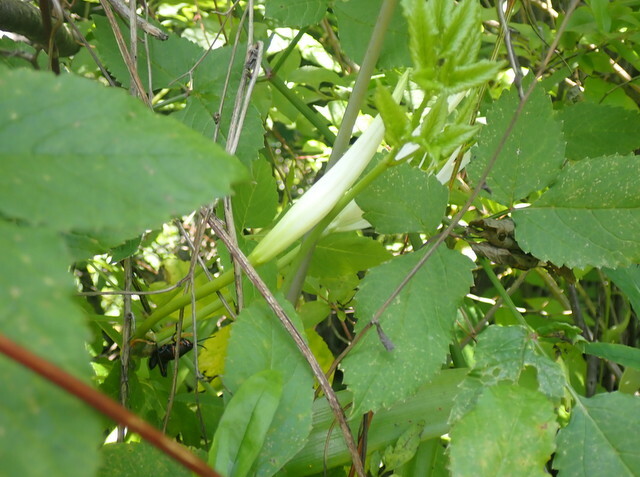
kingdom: Plantae
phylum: Tracheophyta
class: Liliopsida
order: Asparagales
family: Amaryllidaceae
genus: Hymenocallis
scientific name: Hymenocallis franklinensis
